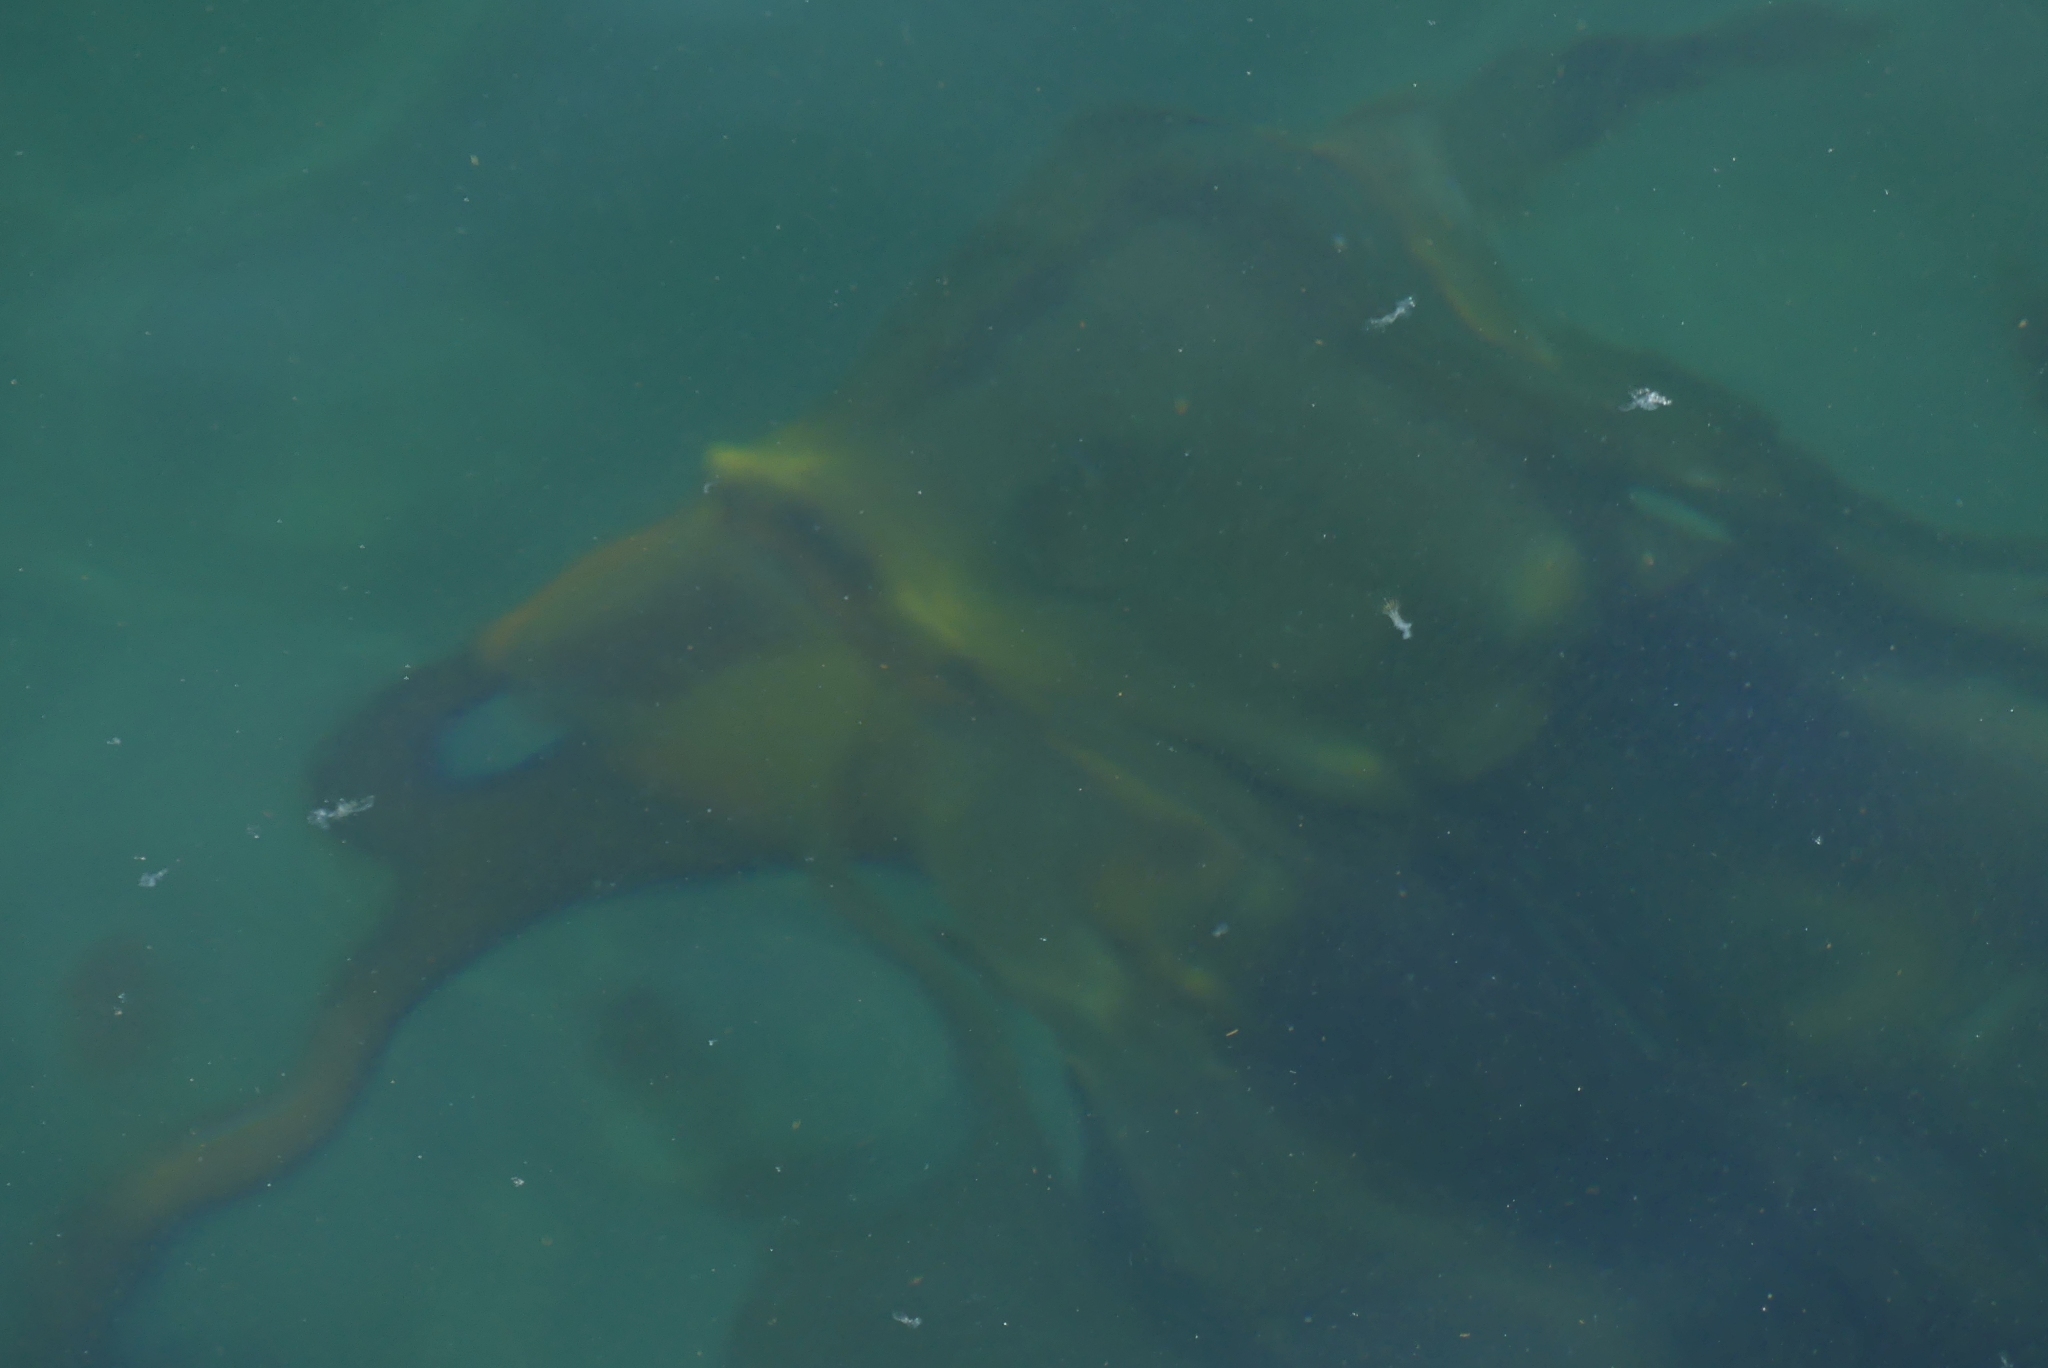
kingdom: Chromista
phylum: Ochrophyta
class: Phaeophyceae
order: Laminariales
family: Laminariaceae
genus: Nereocystis
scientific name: Nereocystis luetkeana
